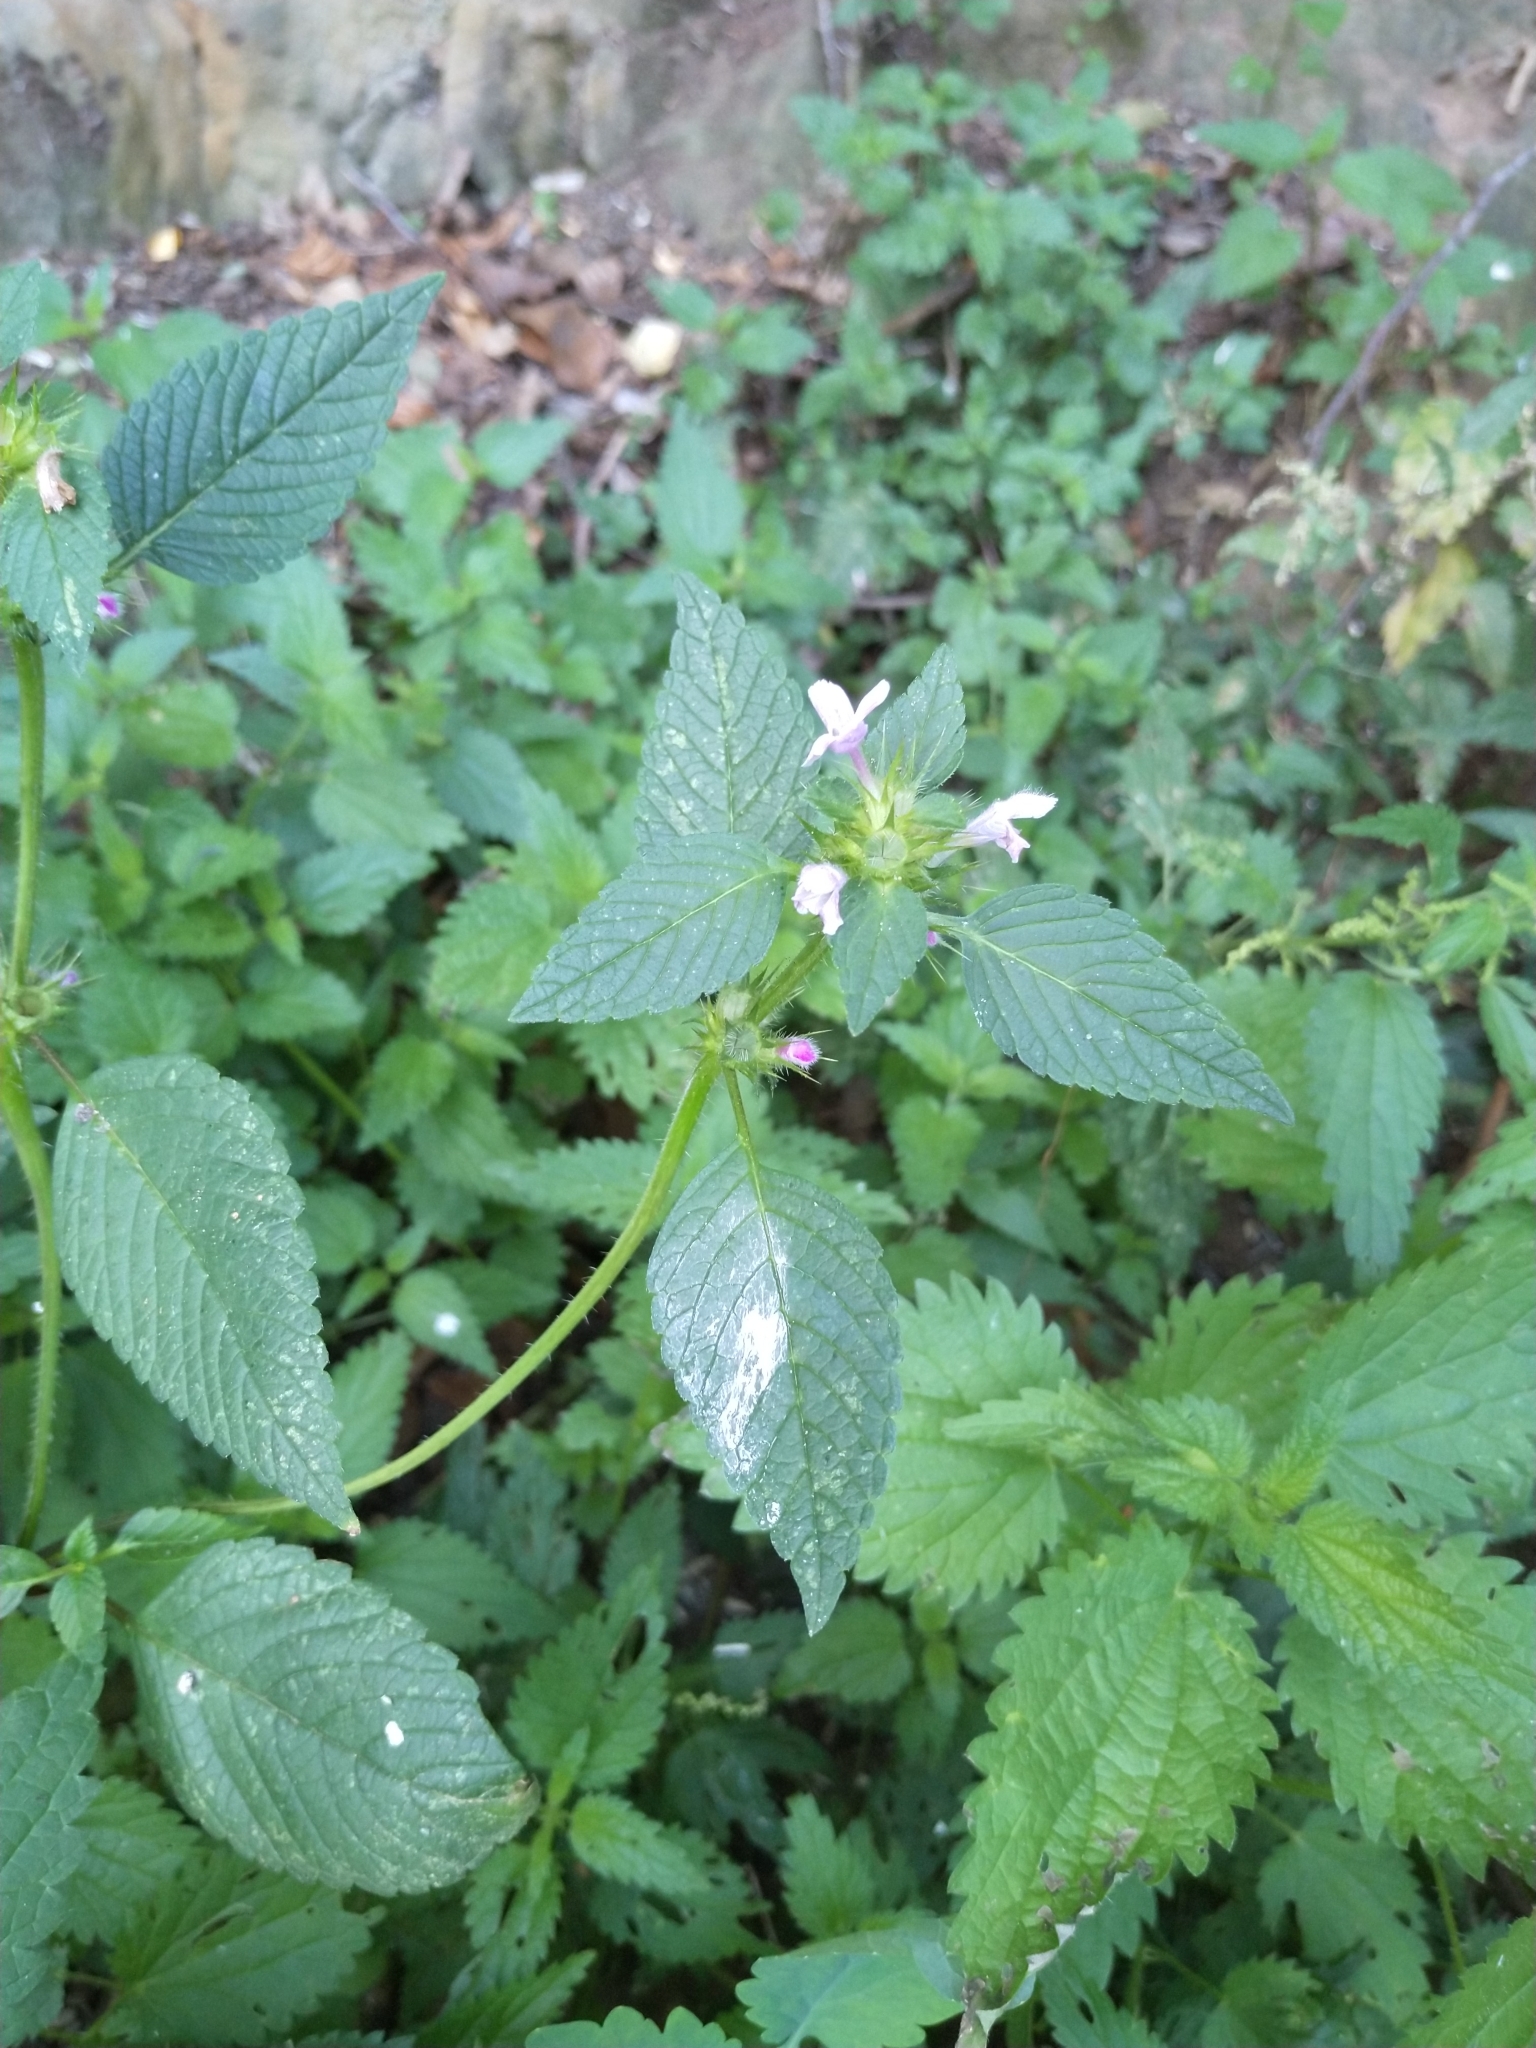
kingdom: Plantae
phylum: Tracheophyta
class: Magnoliopsida
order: Lamiales
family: Lamiaceae
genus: Galeopsis
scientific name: Galeopsis tetrahit
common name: Common hemp-nettle
